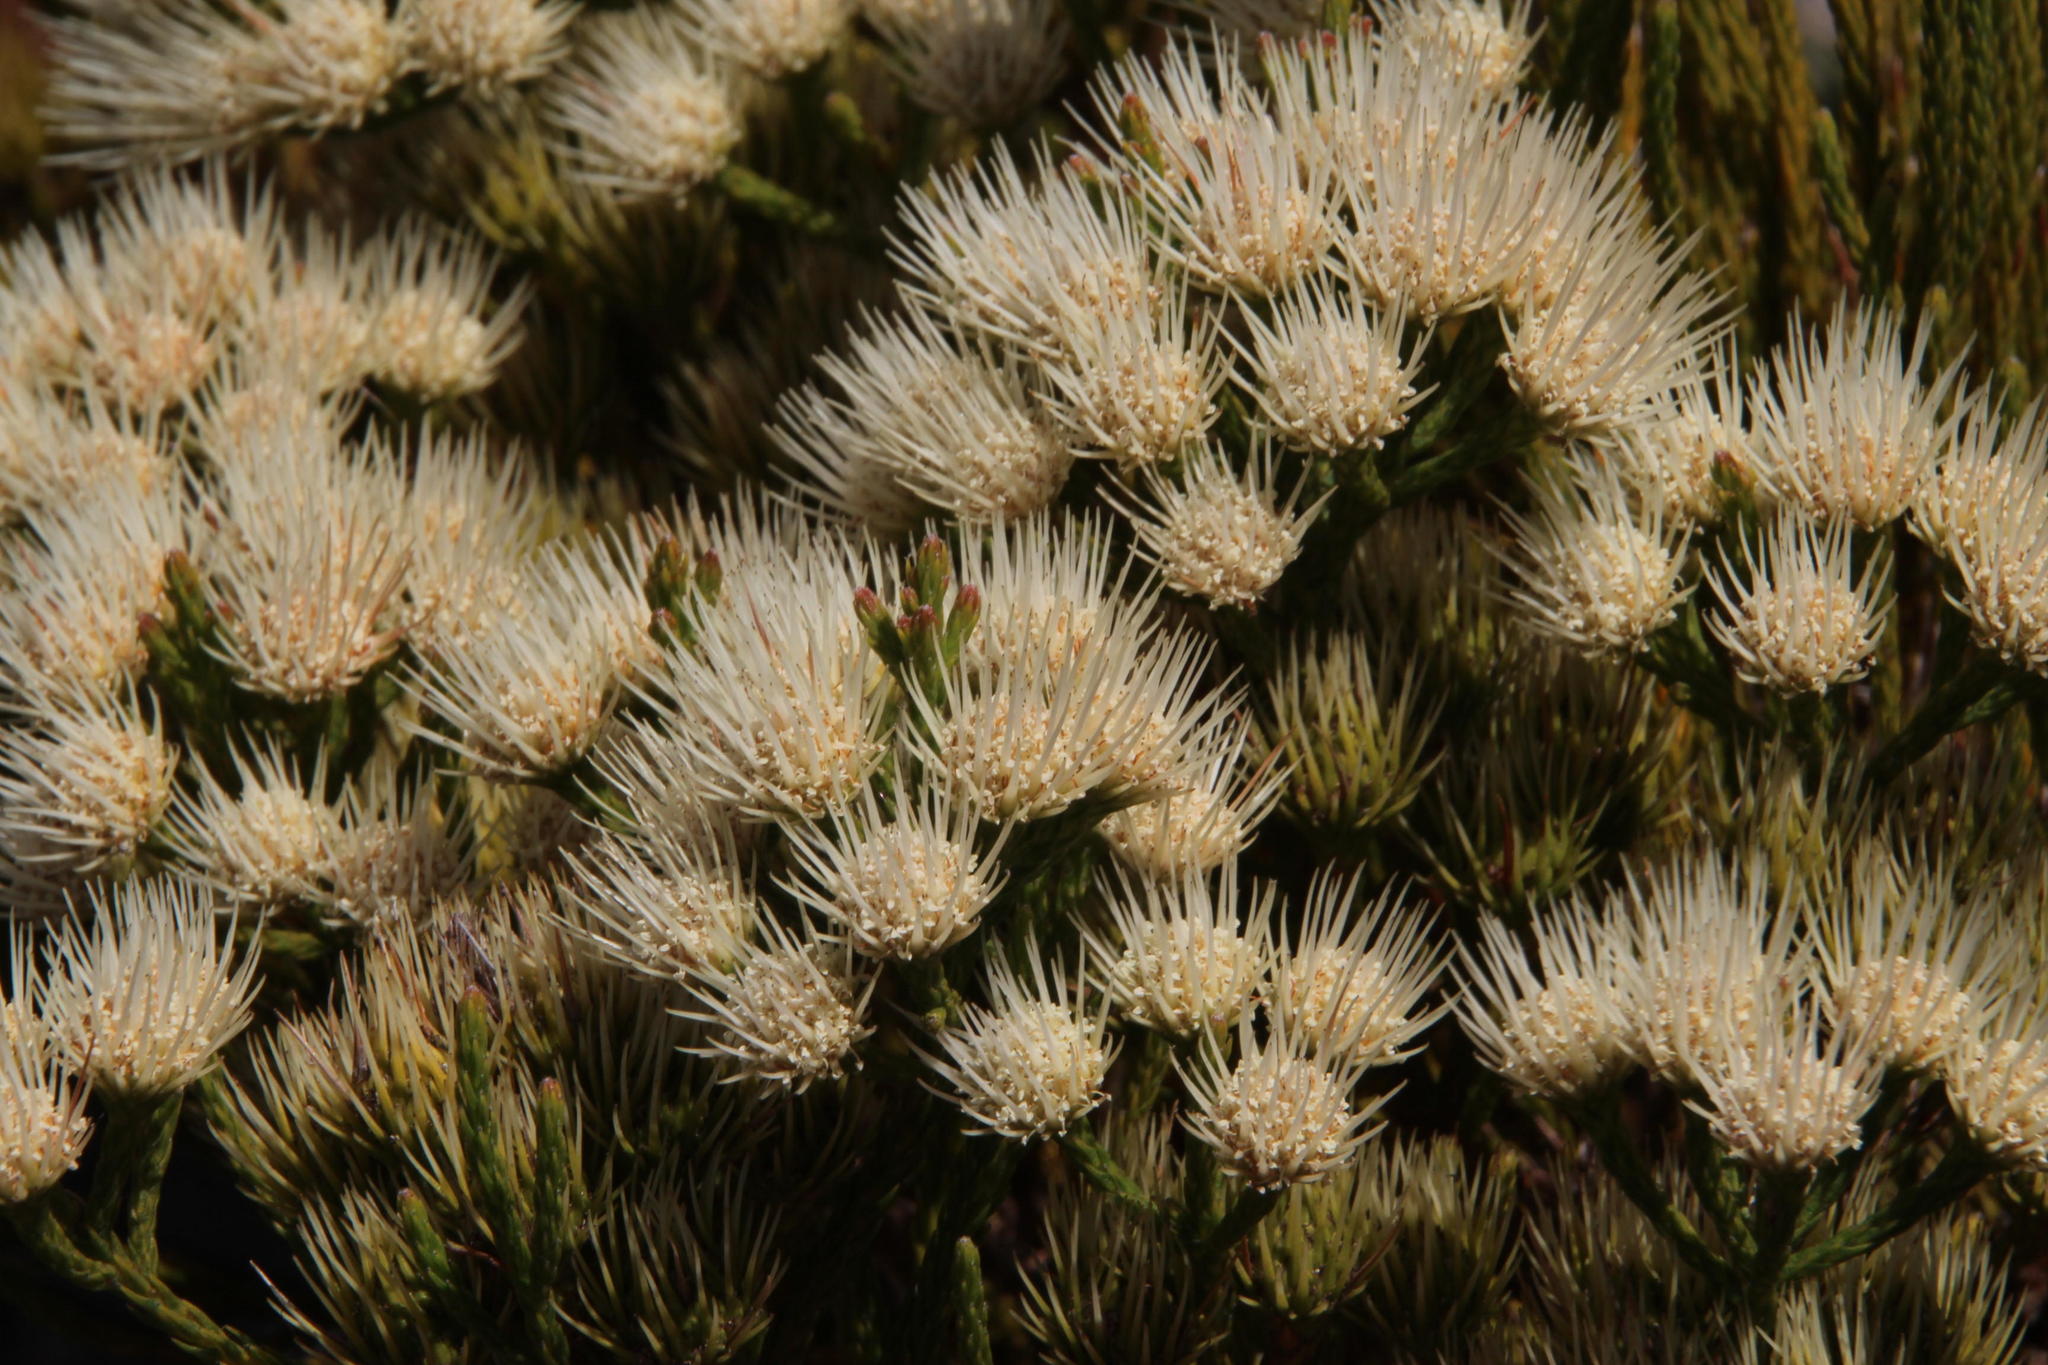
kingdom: Plantae
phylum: Tracheophyta
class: Magnoliopsida
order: Bruniales
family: Bruniaceae
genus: Brunia
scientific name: Brunia paleacea
